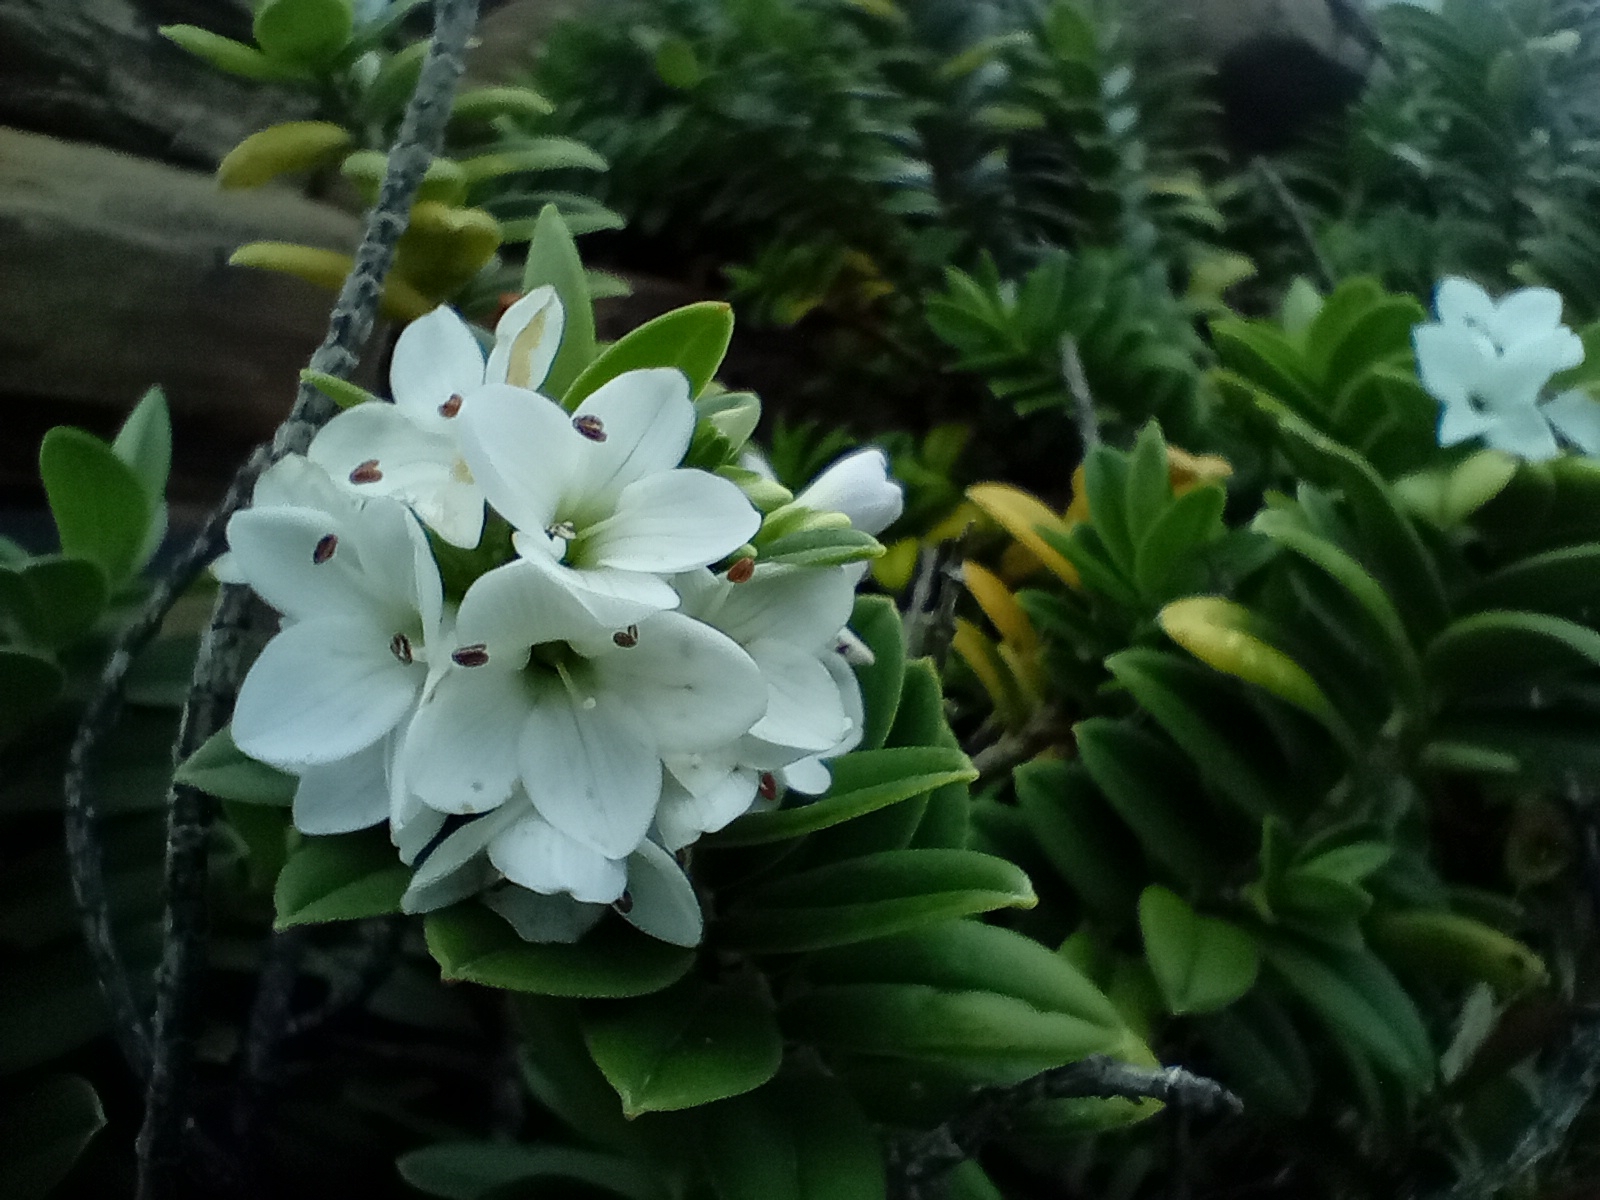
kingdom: Plantae
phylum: Tracheophyta
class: Magnoliopsida
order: Lamiales
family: Plantaginaceae
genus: Veronica
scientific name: Veronica elliptica
